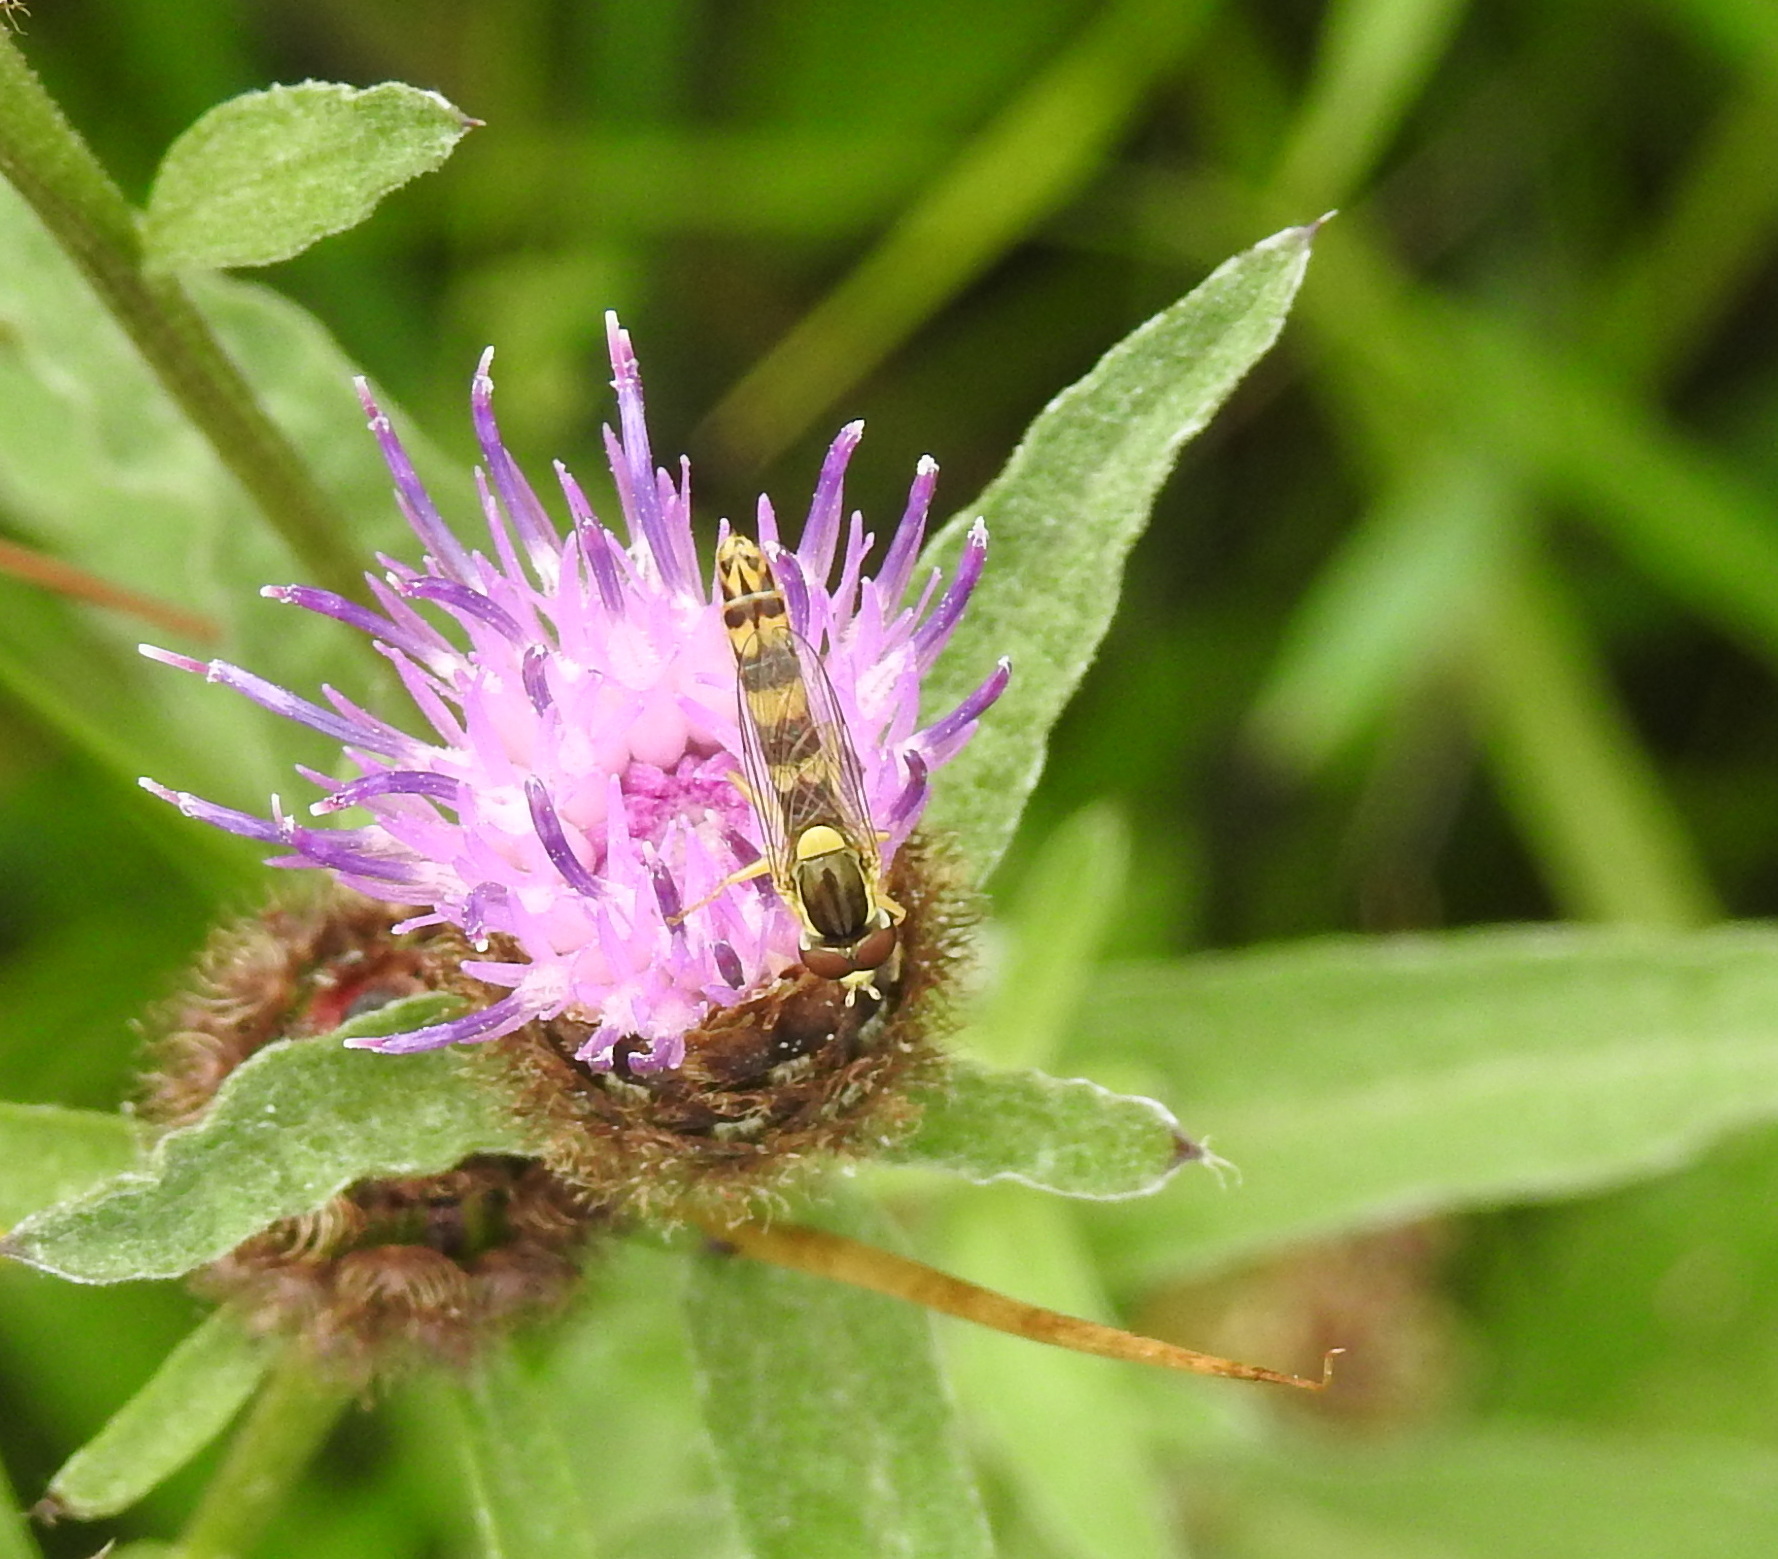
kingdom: Animalia
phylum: Arthropoda
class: Insecta
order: Diptera
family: Syrphidae
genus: Sphaerophoria
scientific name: Sphaerophoria scripta
